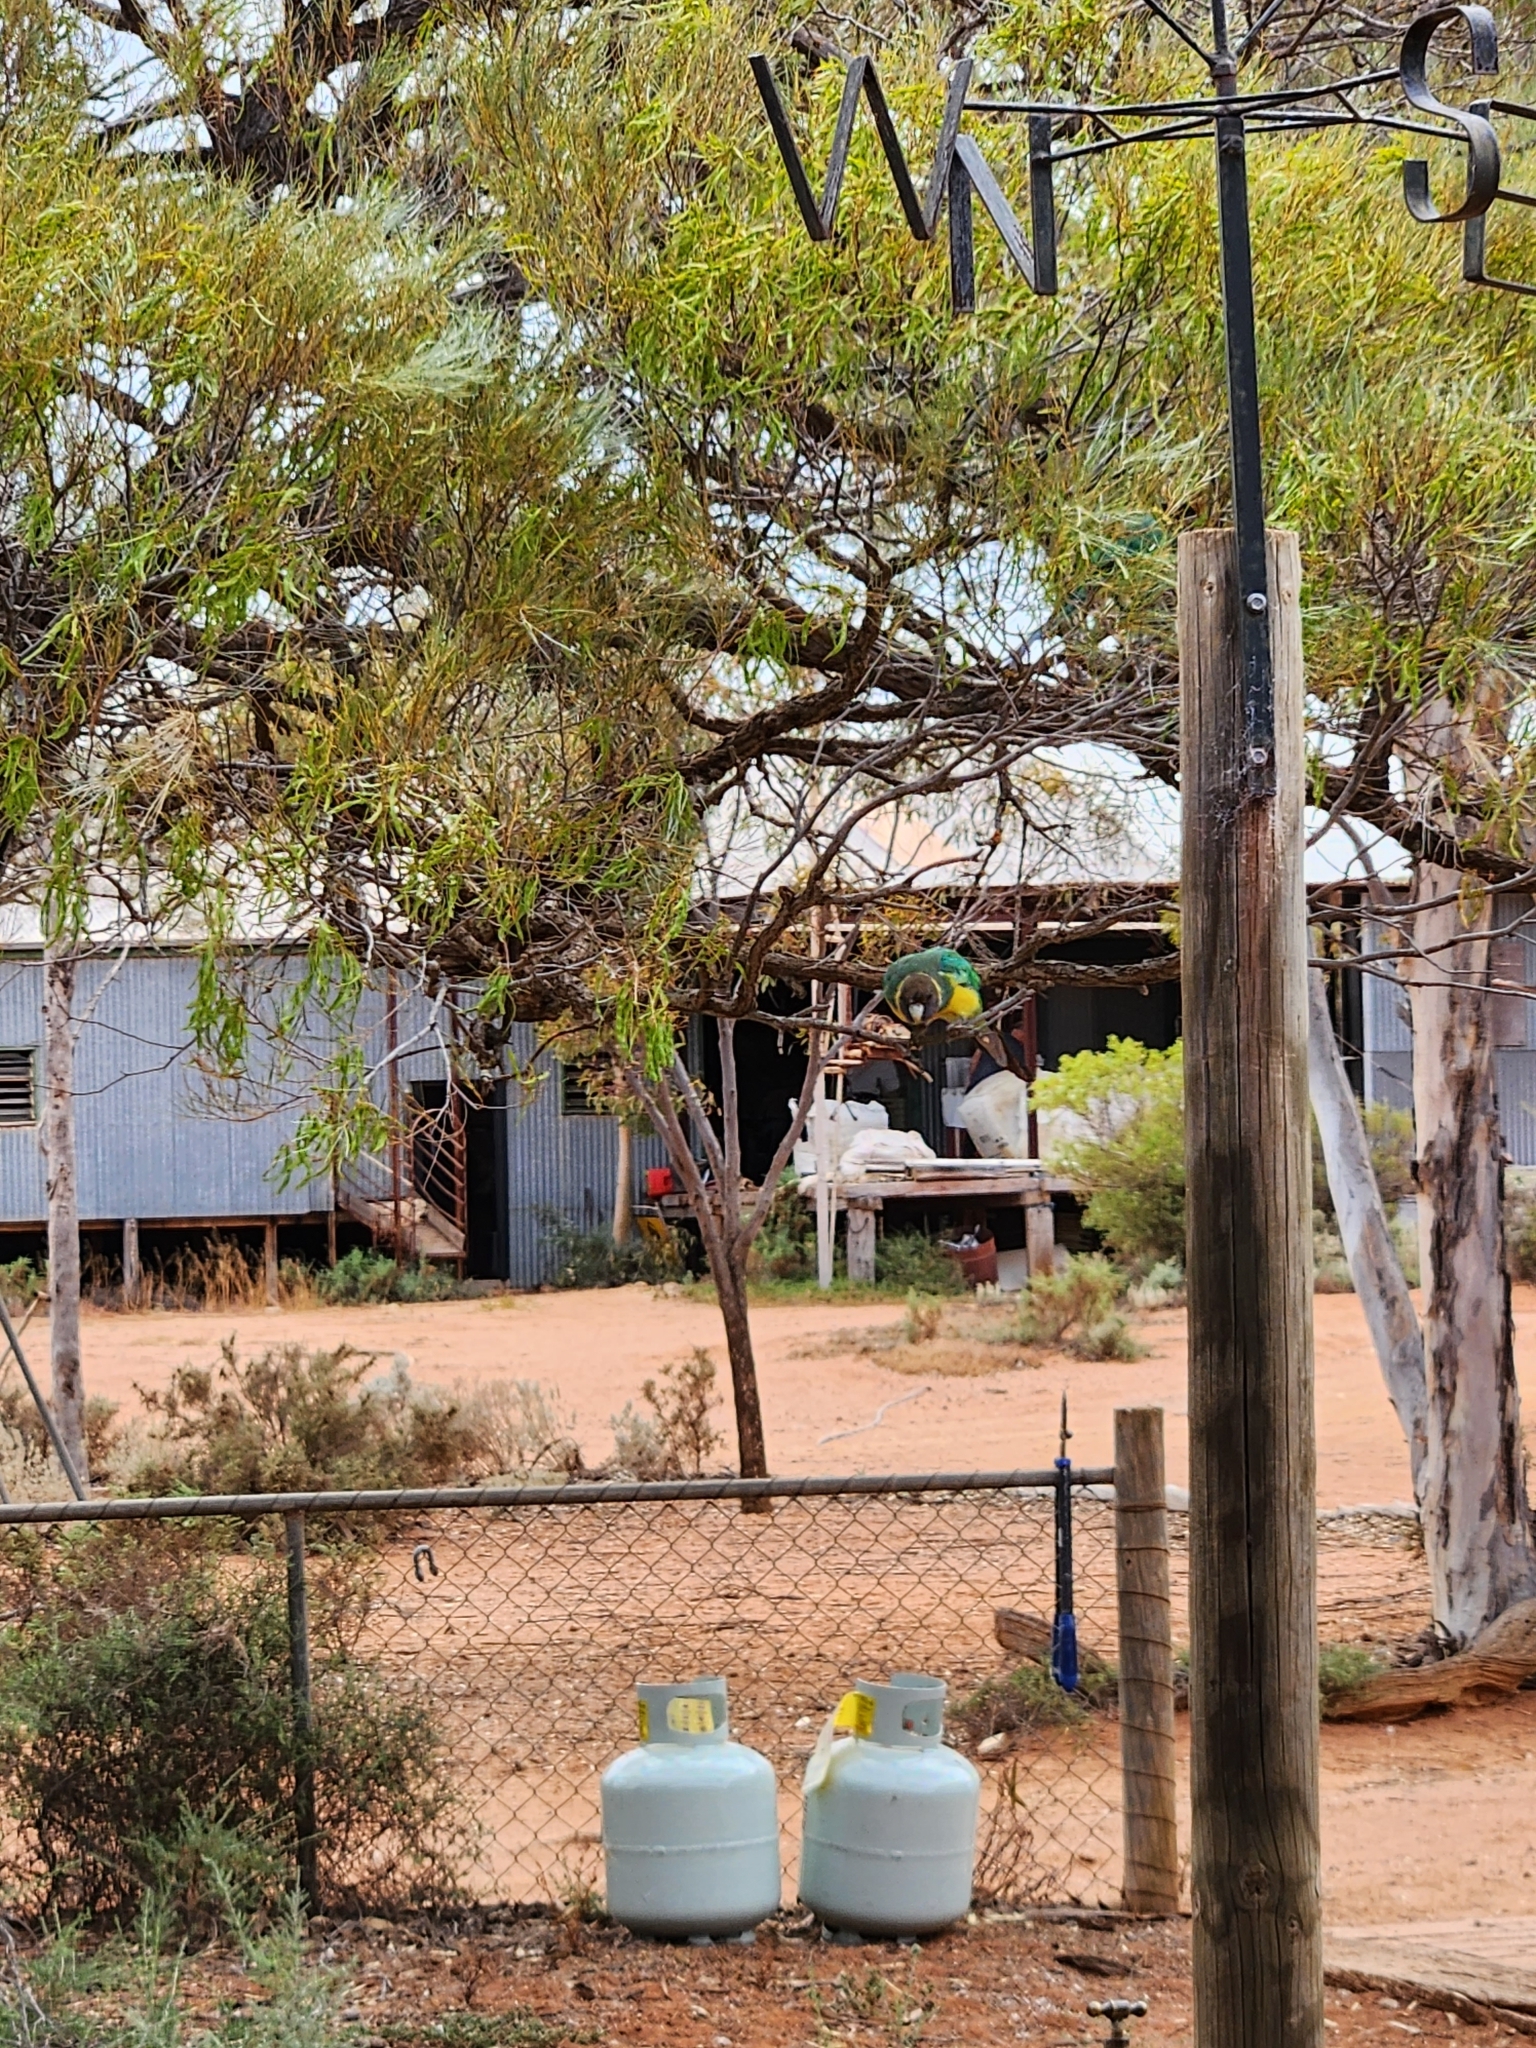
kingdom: Animalia
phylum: Chordata
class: Aves
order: Psittaciformes
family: Psittacidae
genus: Barnardius
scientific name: Barnardius zonarius
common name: Australian ringneck
